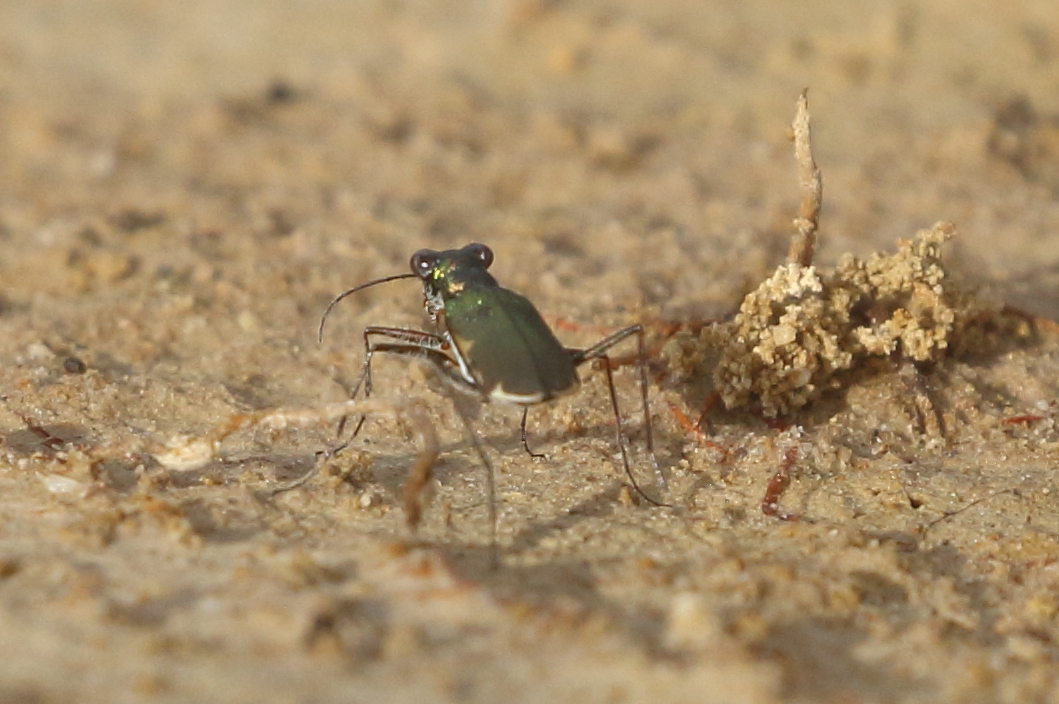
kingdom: Animalia
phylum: Arthropoda
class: Insecta
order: Coleoptera
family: Carabidae
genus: Myriochila
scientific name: Myriochila semicincta
